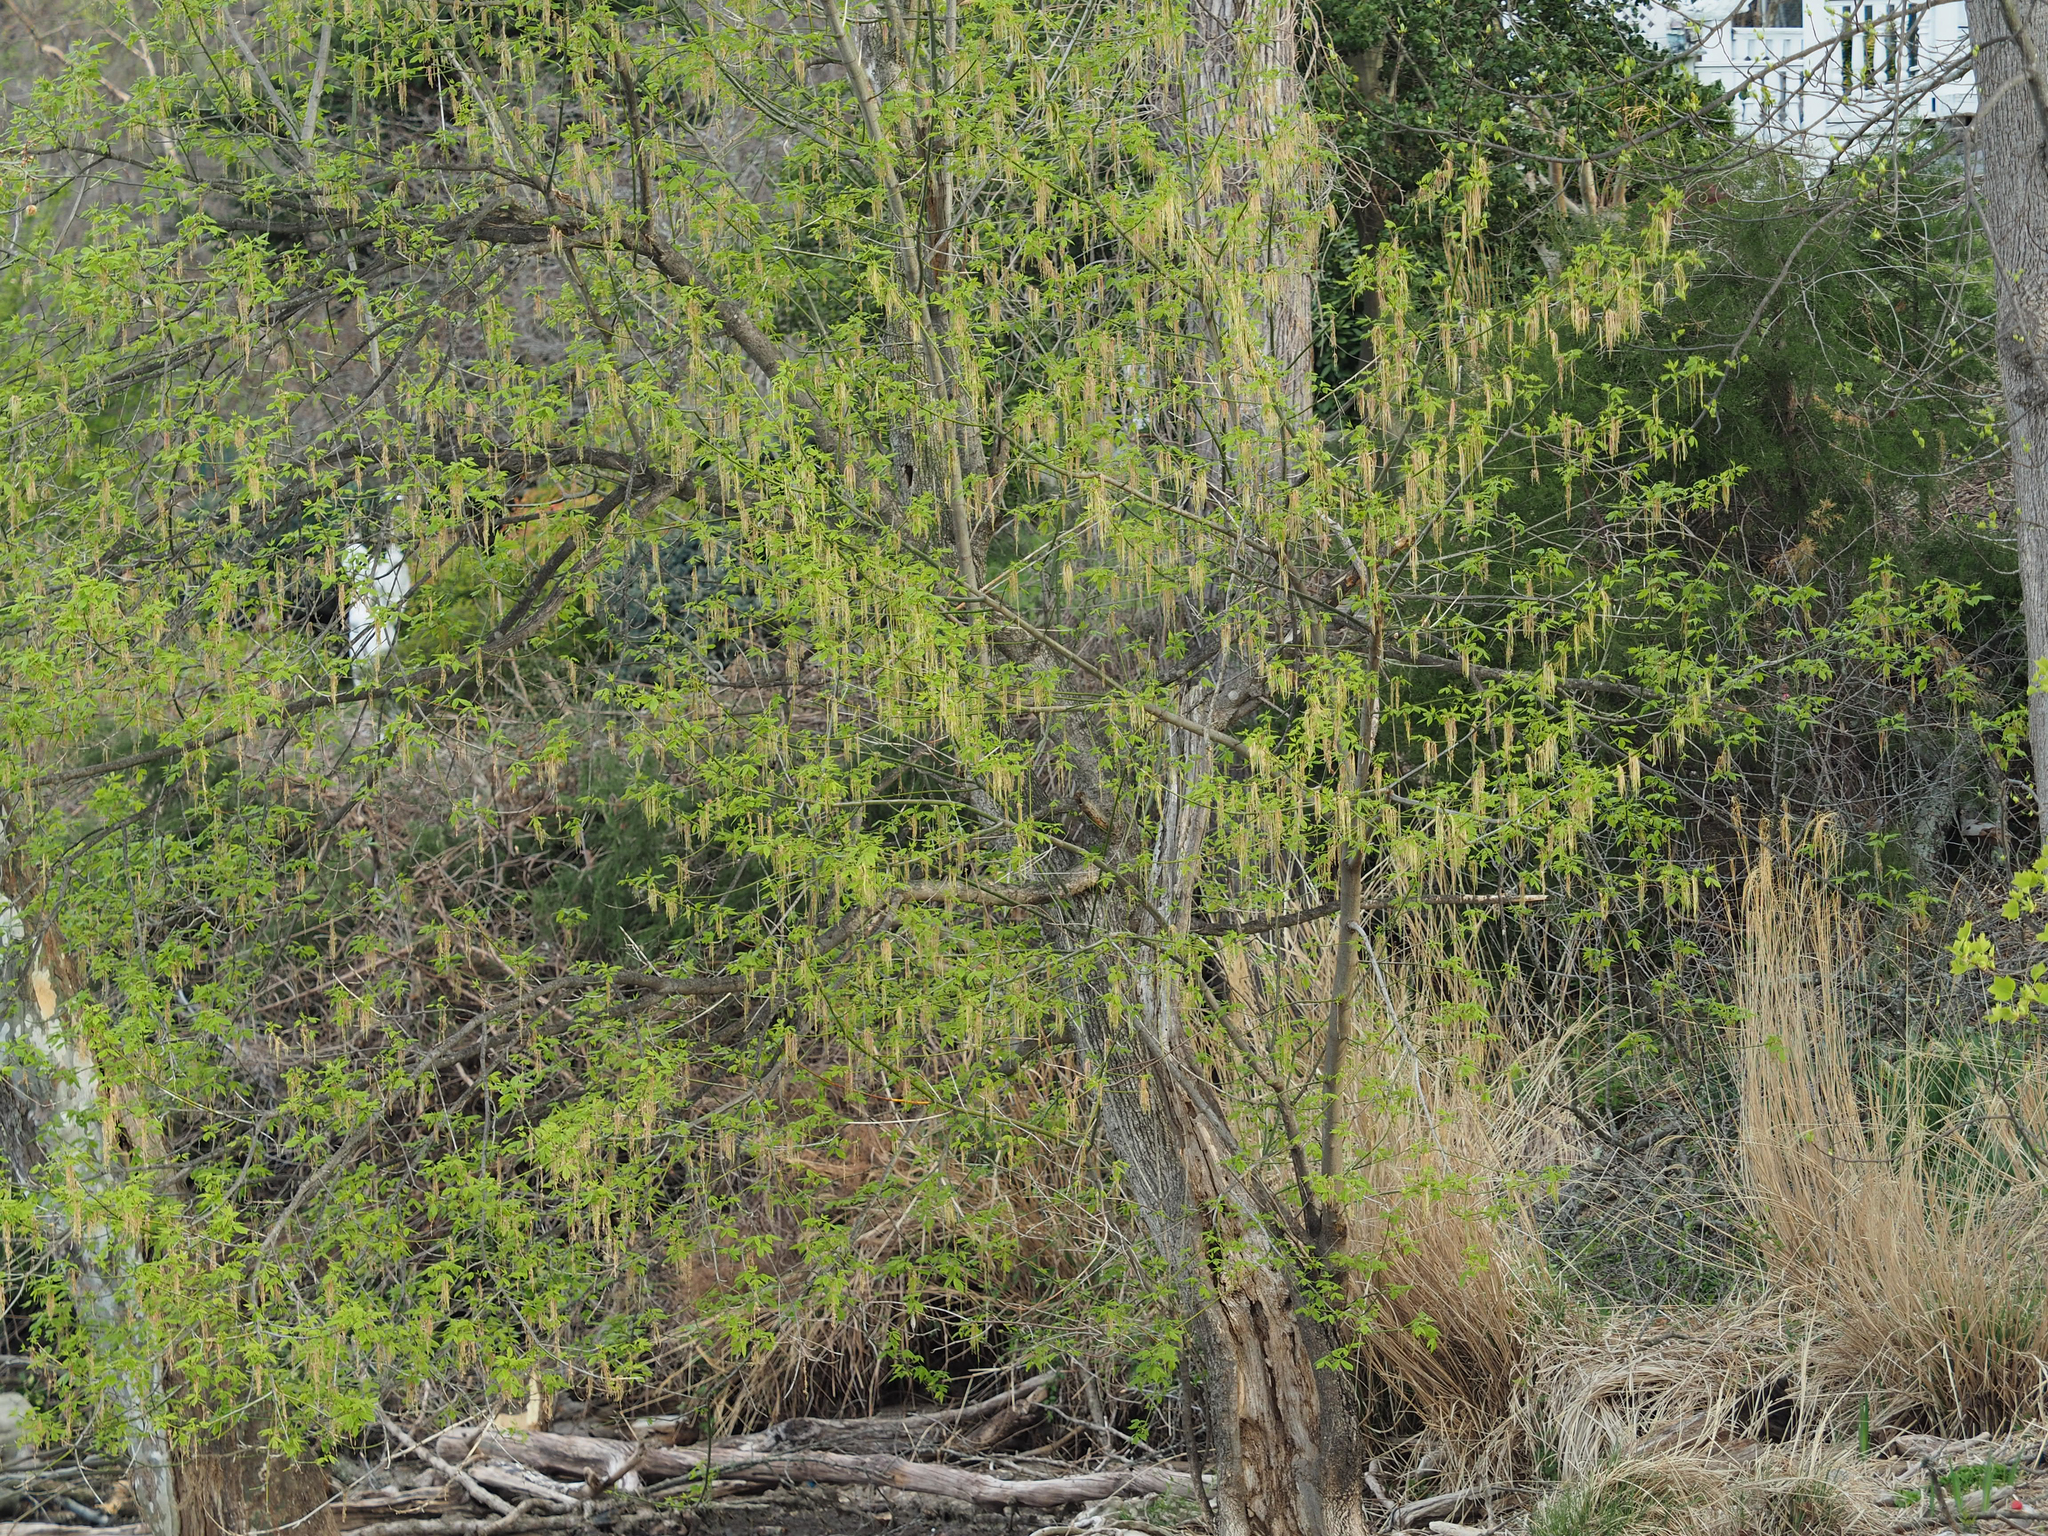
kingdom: Plantae
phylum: Tracheophyta
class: Magnoliopsida
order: Sapindales
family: Sapindaceae
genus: Acer
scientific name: Acer negundo
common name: Ashleaf maple
